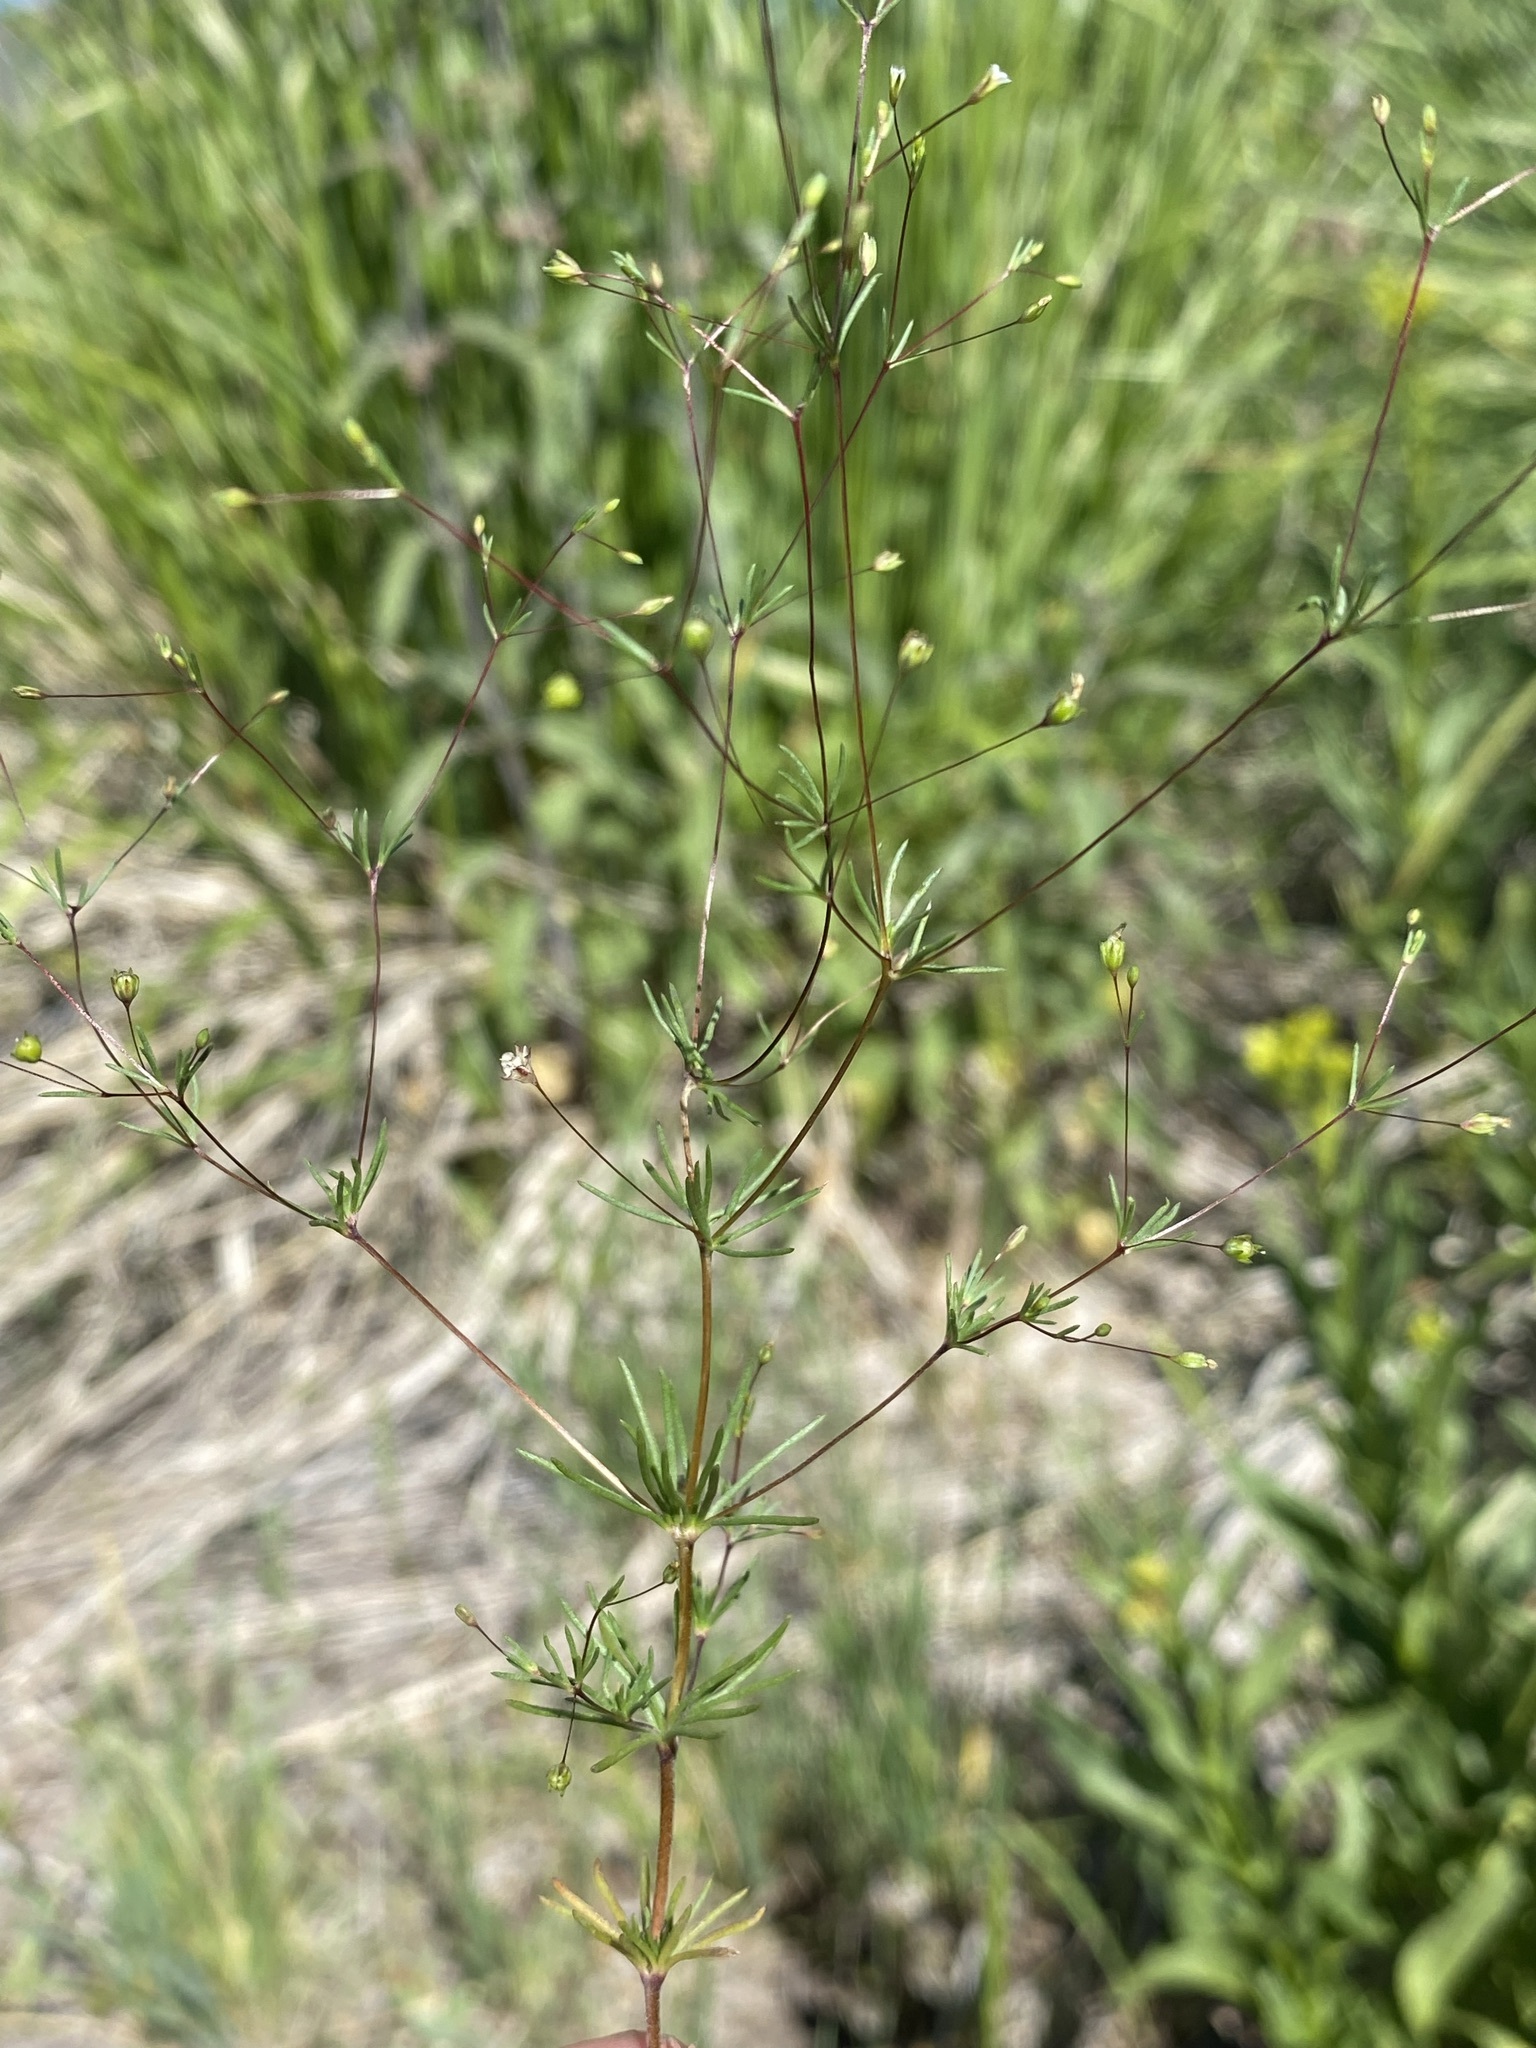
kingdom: Plantae
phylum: Tracheophyta
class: Magnoliopsida
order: Ericales
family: Polemoniaceae
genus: Linanthus
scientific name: Linanthus harknessii
